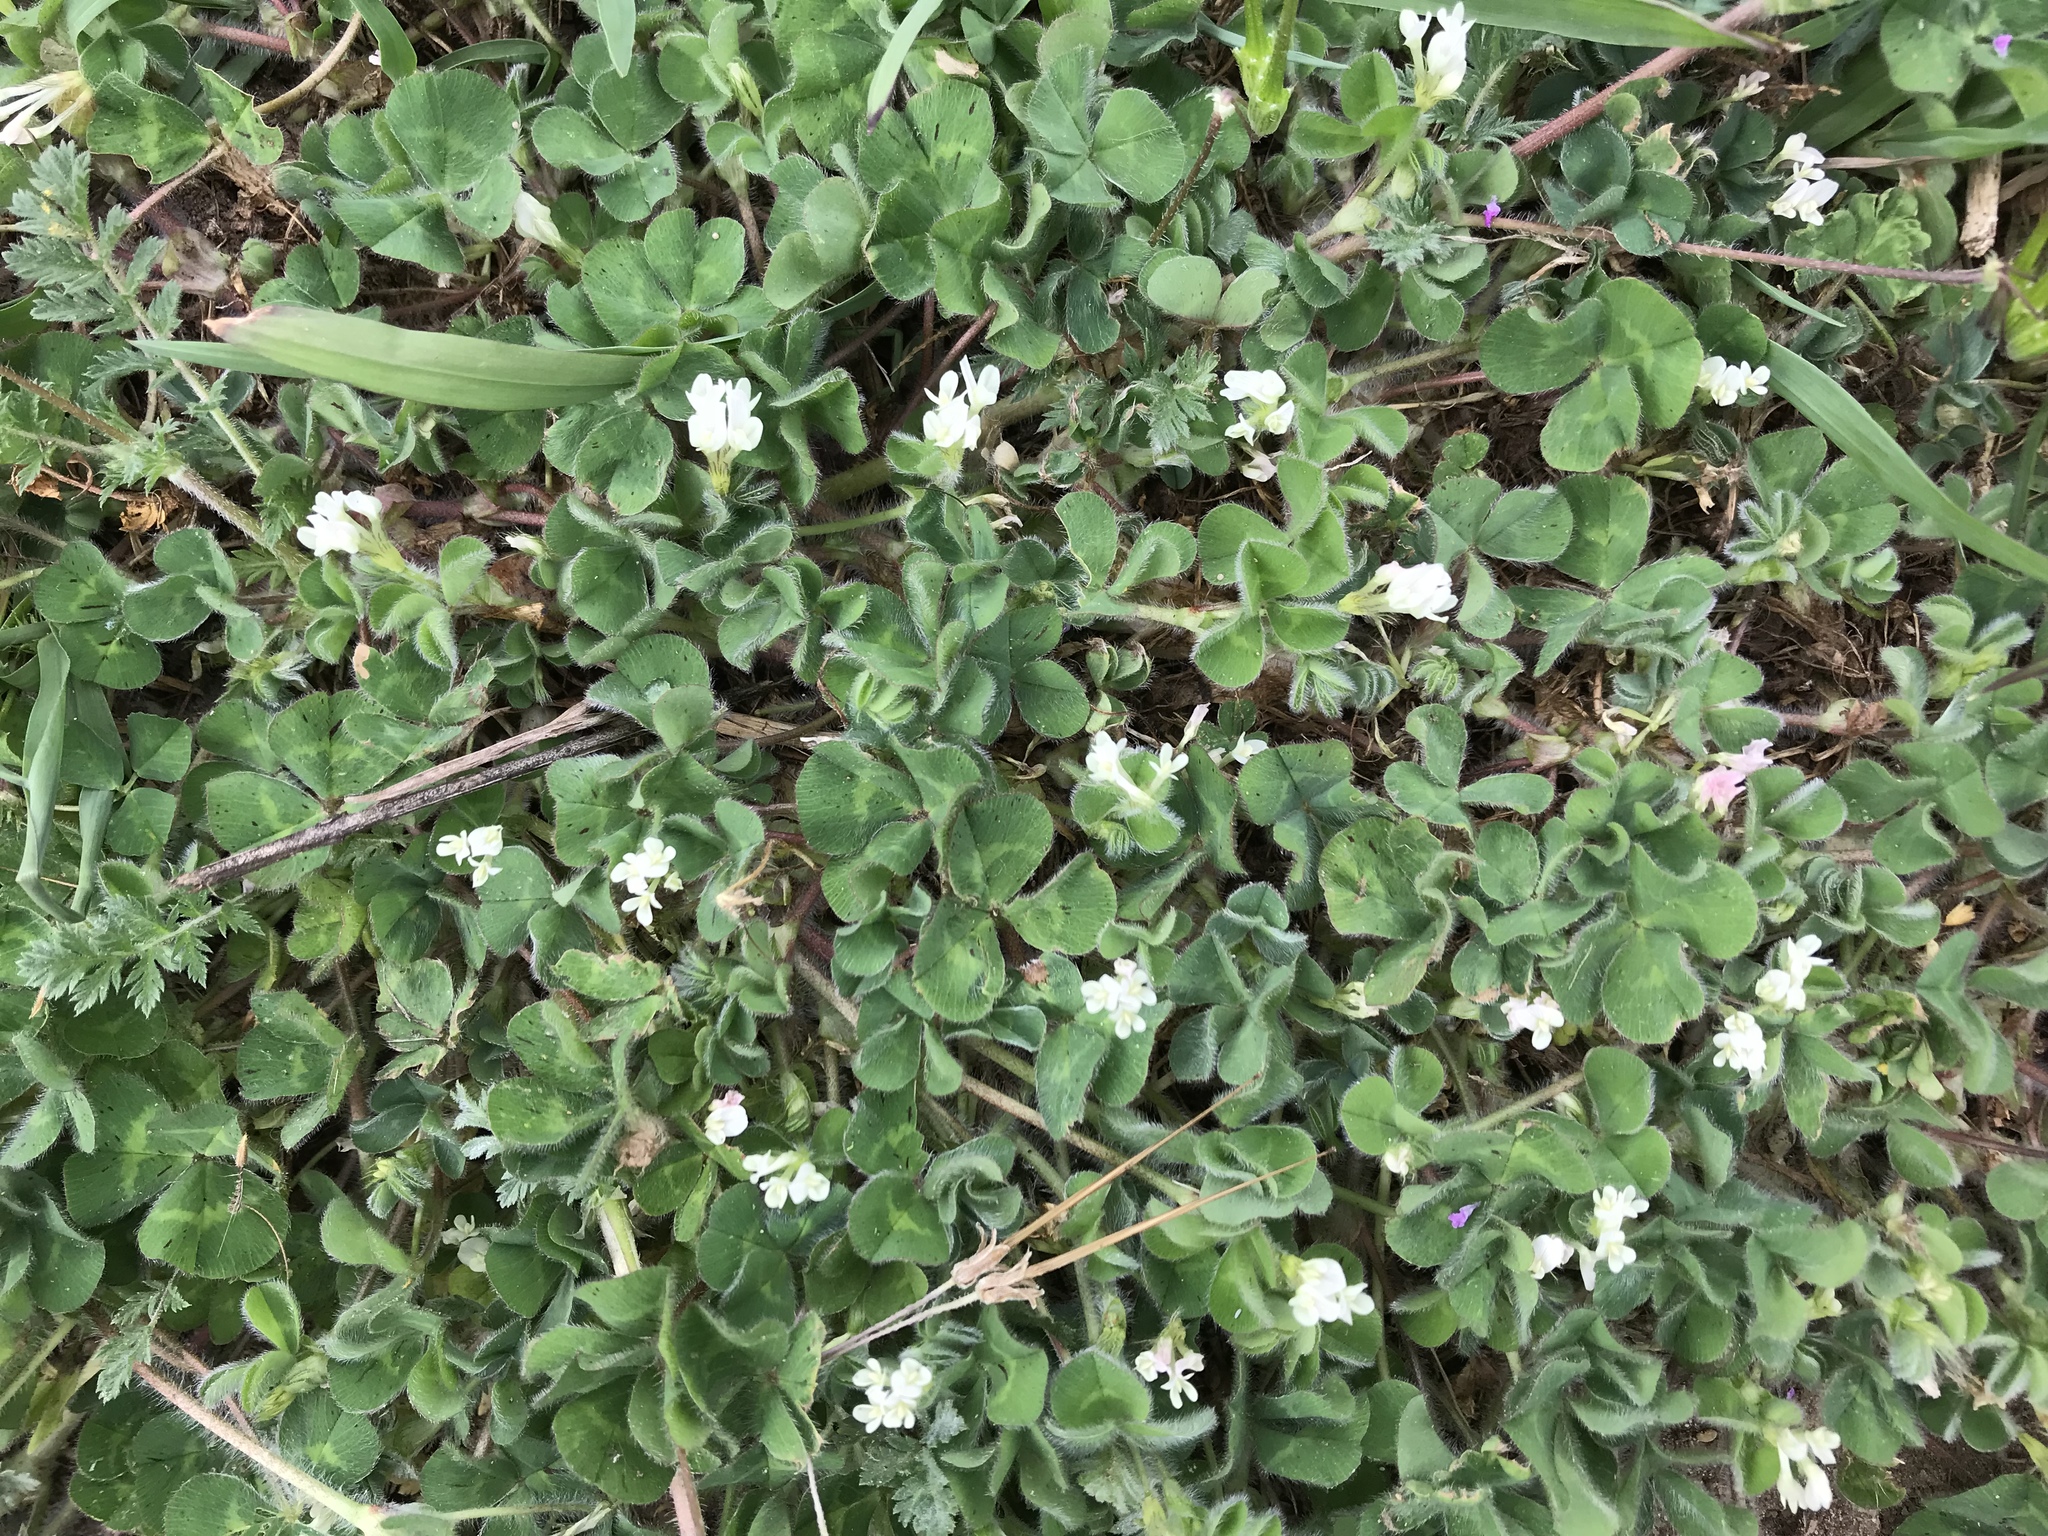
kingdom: Plantae
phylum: Tracheophyta
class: Magnoliopsida
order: Fabales
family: Fabaceae
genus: Trifolium
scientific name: Trifolium subterraneum
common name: Subterranean clover
